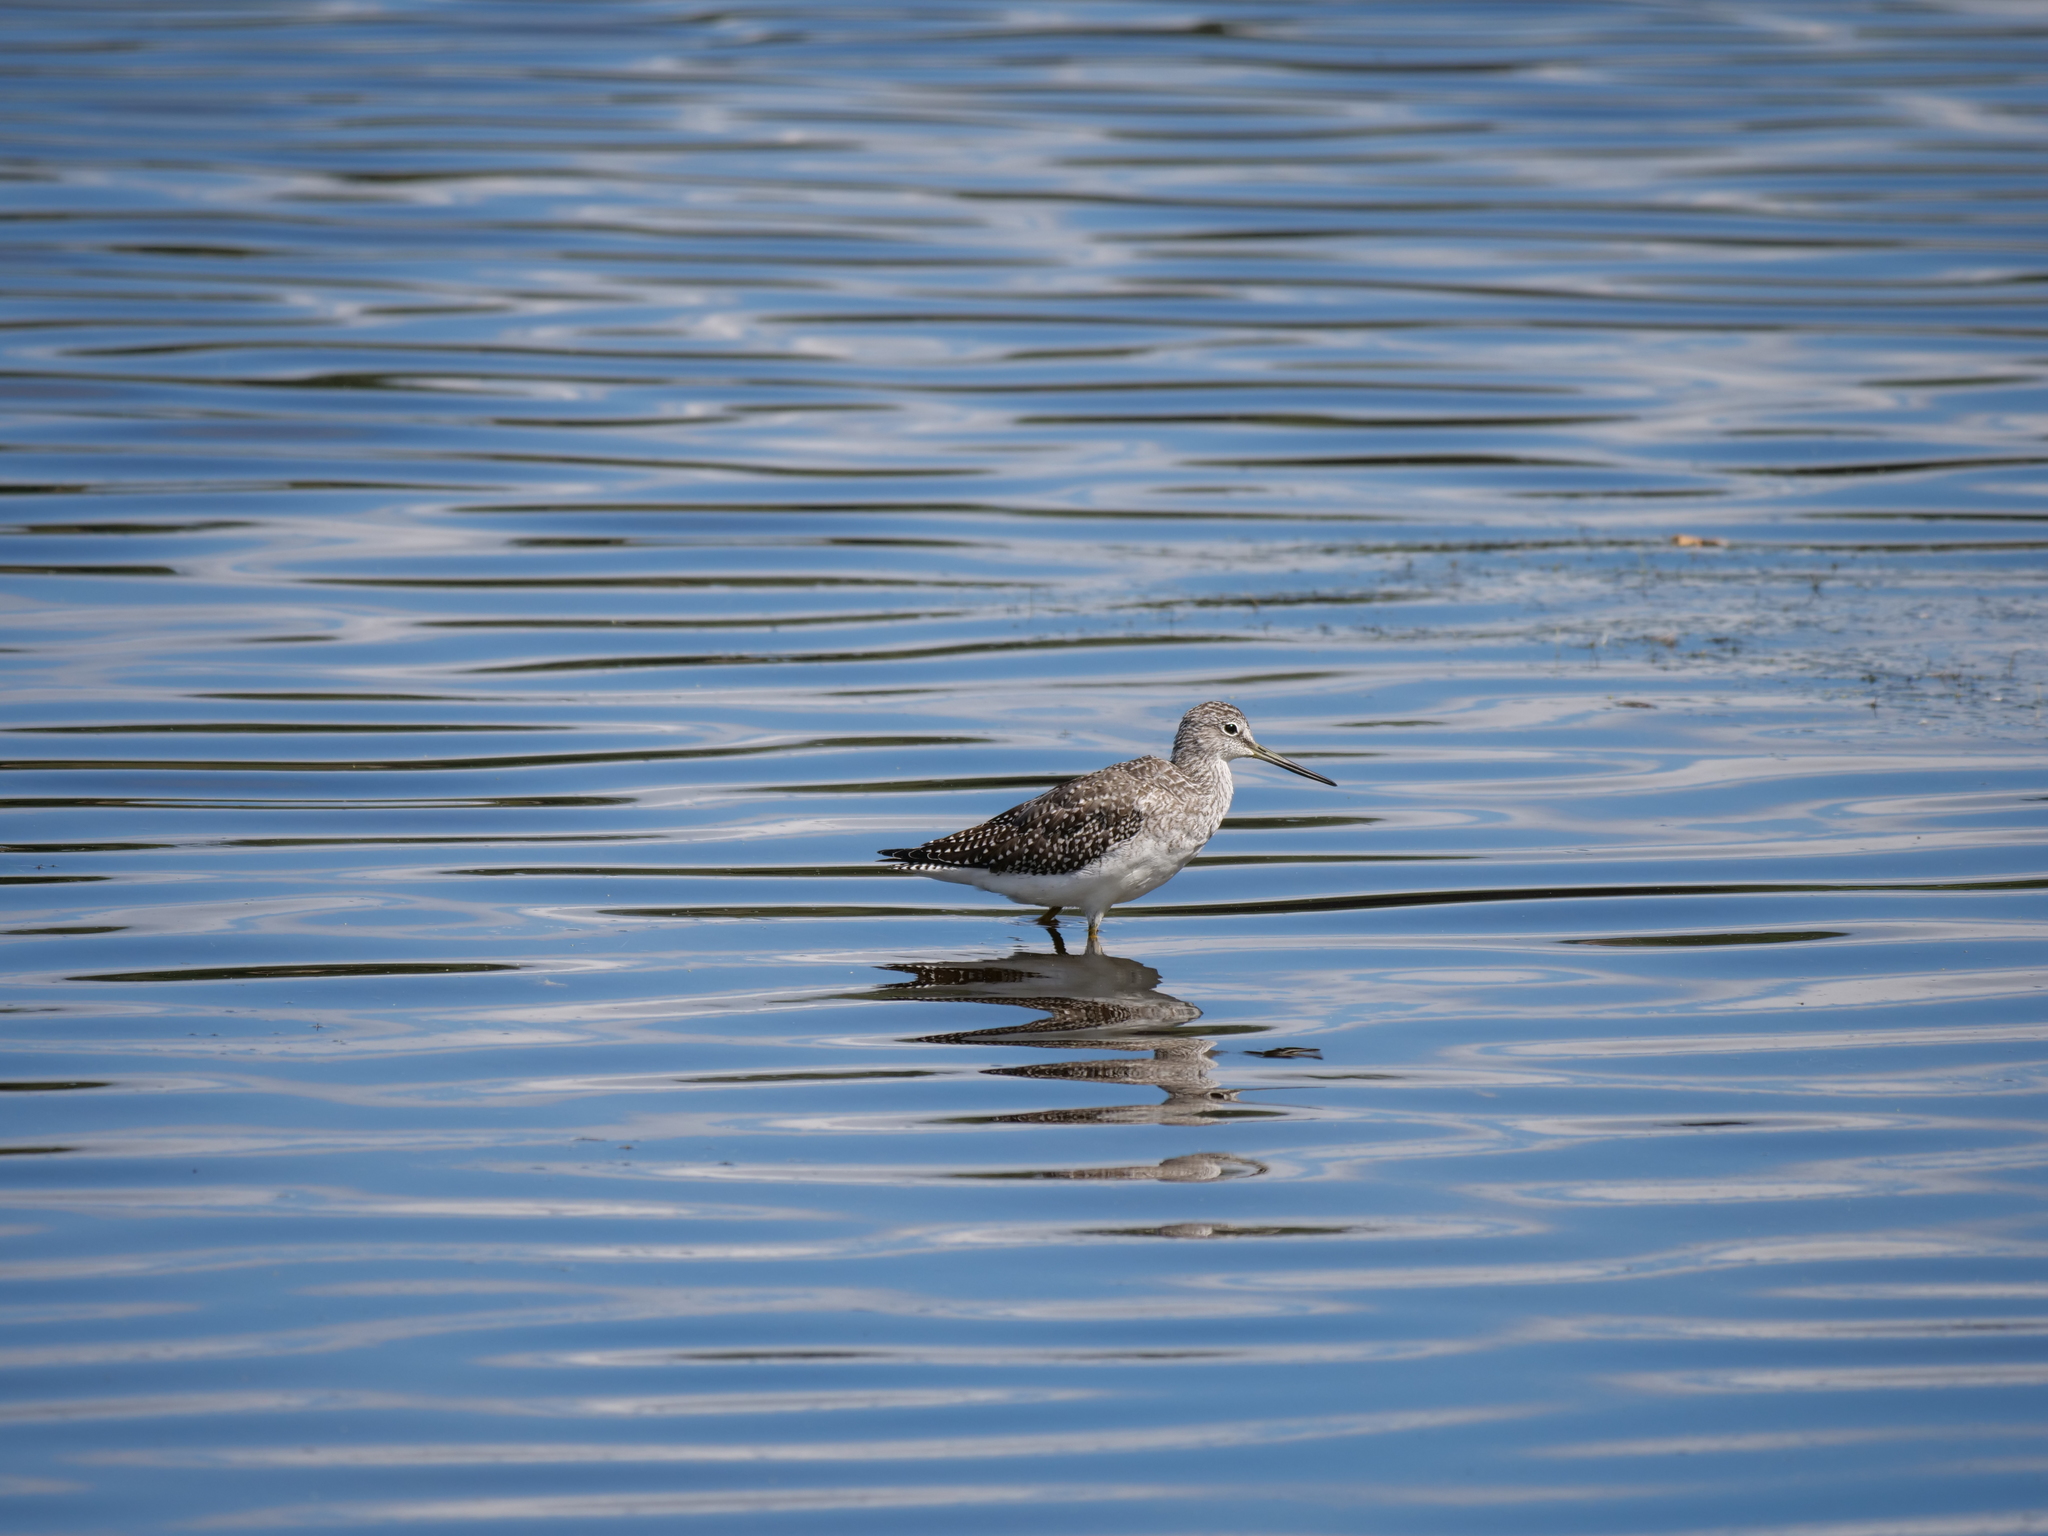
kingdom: Animalia
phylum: Chordata
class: Aves
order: Charadriiformes
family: Scolopacidae
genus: Tringa
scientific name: Tringa melanoleuca
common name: Greater yellowlegs
